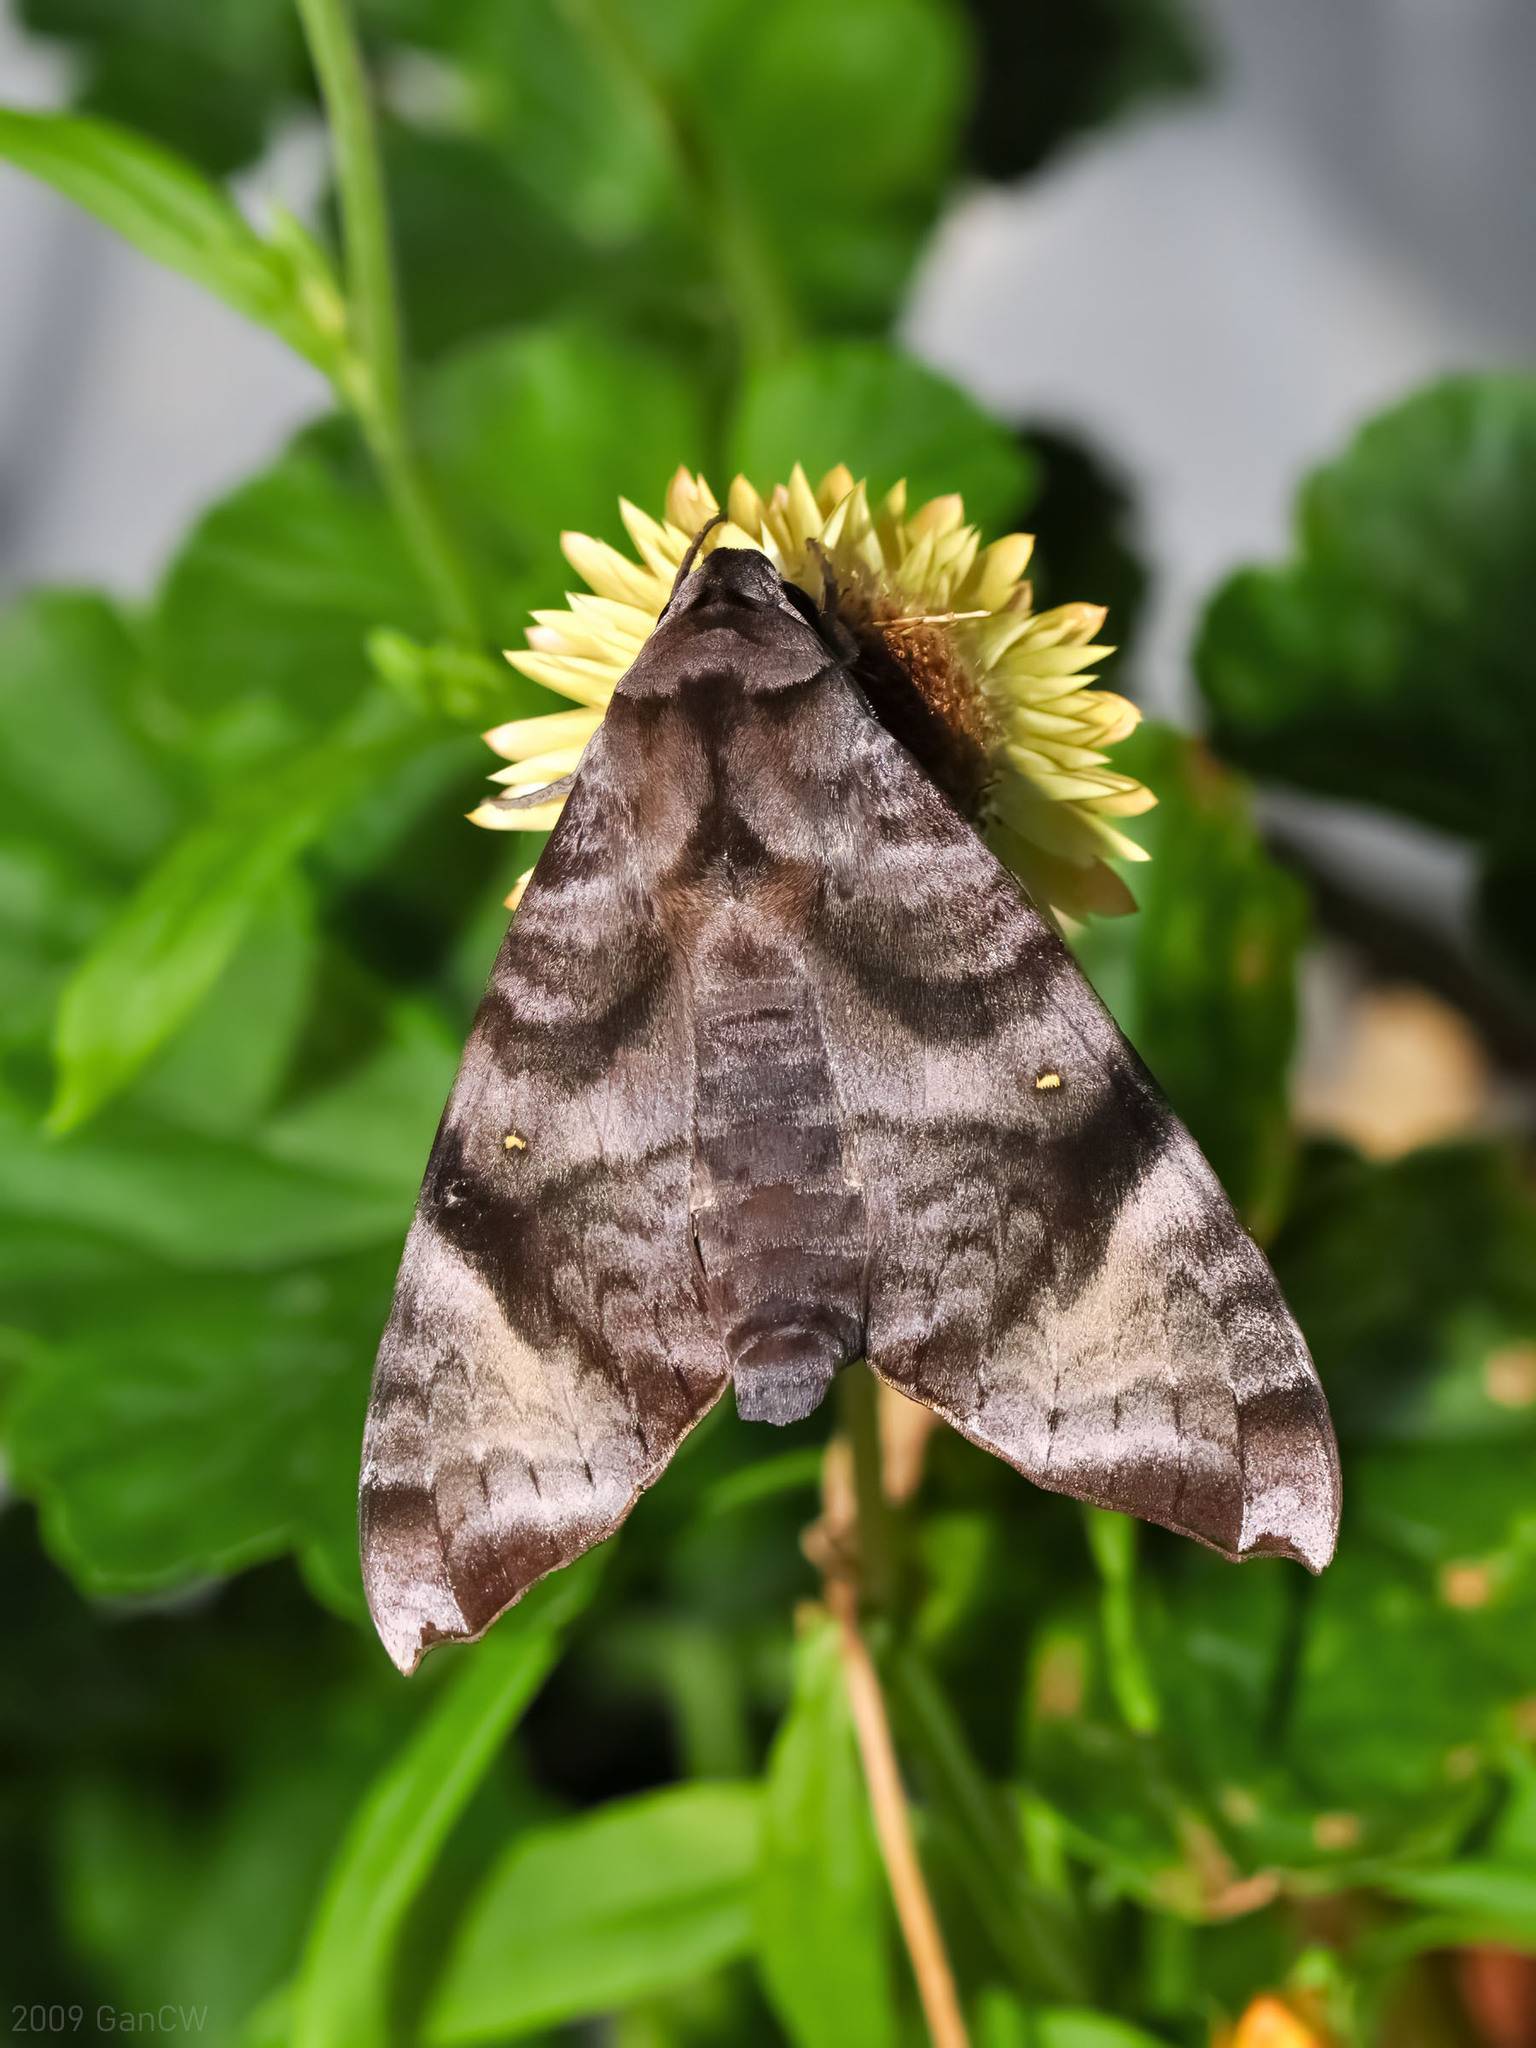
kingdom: Animalia
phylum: Arthropoda
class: Insecta
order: Lepidoptera
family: Sphingidae
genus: Acosmeryx
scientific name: Acosmeryx pseudonaga
